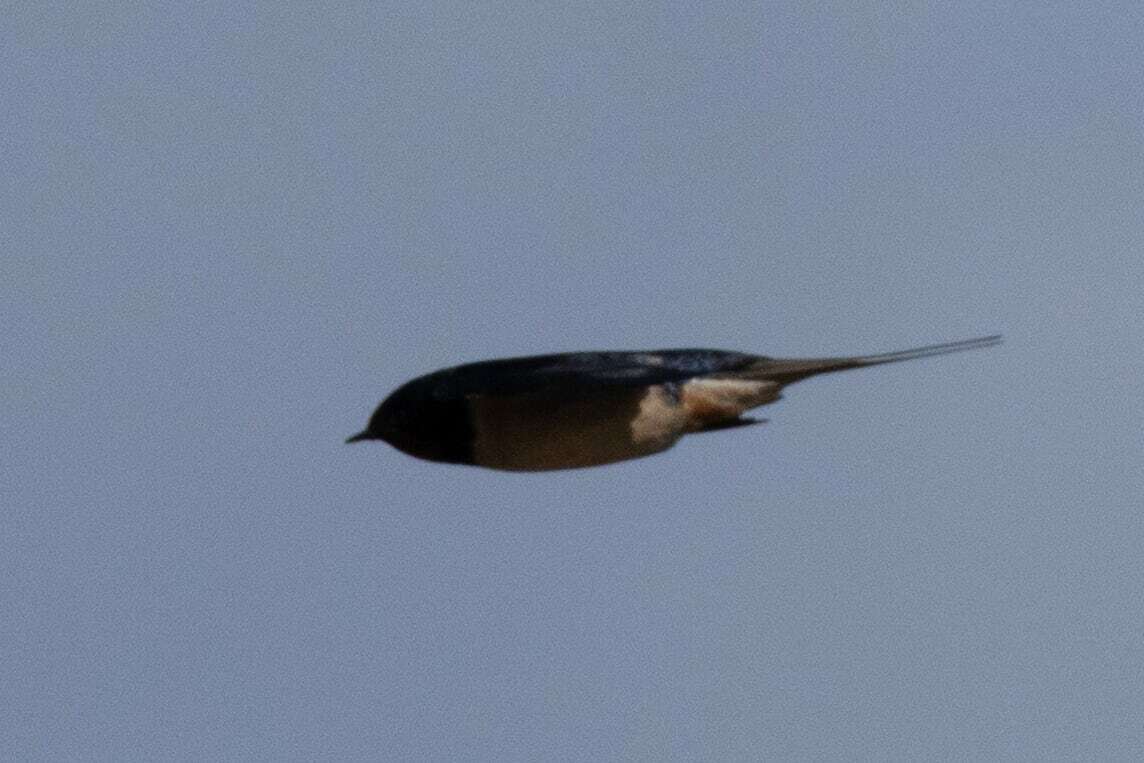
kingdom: Animalia
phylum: Chordata
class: Aves
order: Passeriformes
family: Hirundinidae
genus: Hirundo
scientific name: Hirundo rustica
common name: Barn swallow
